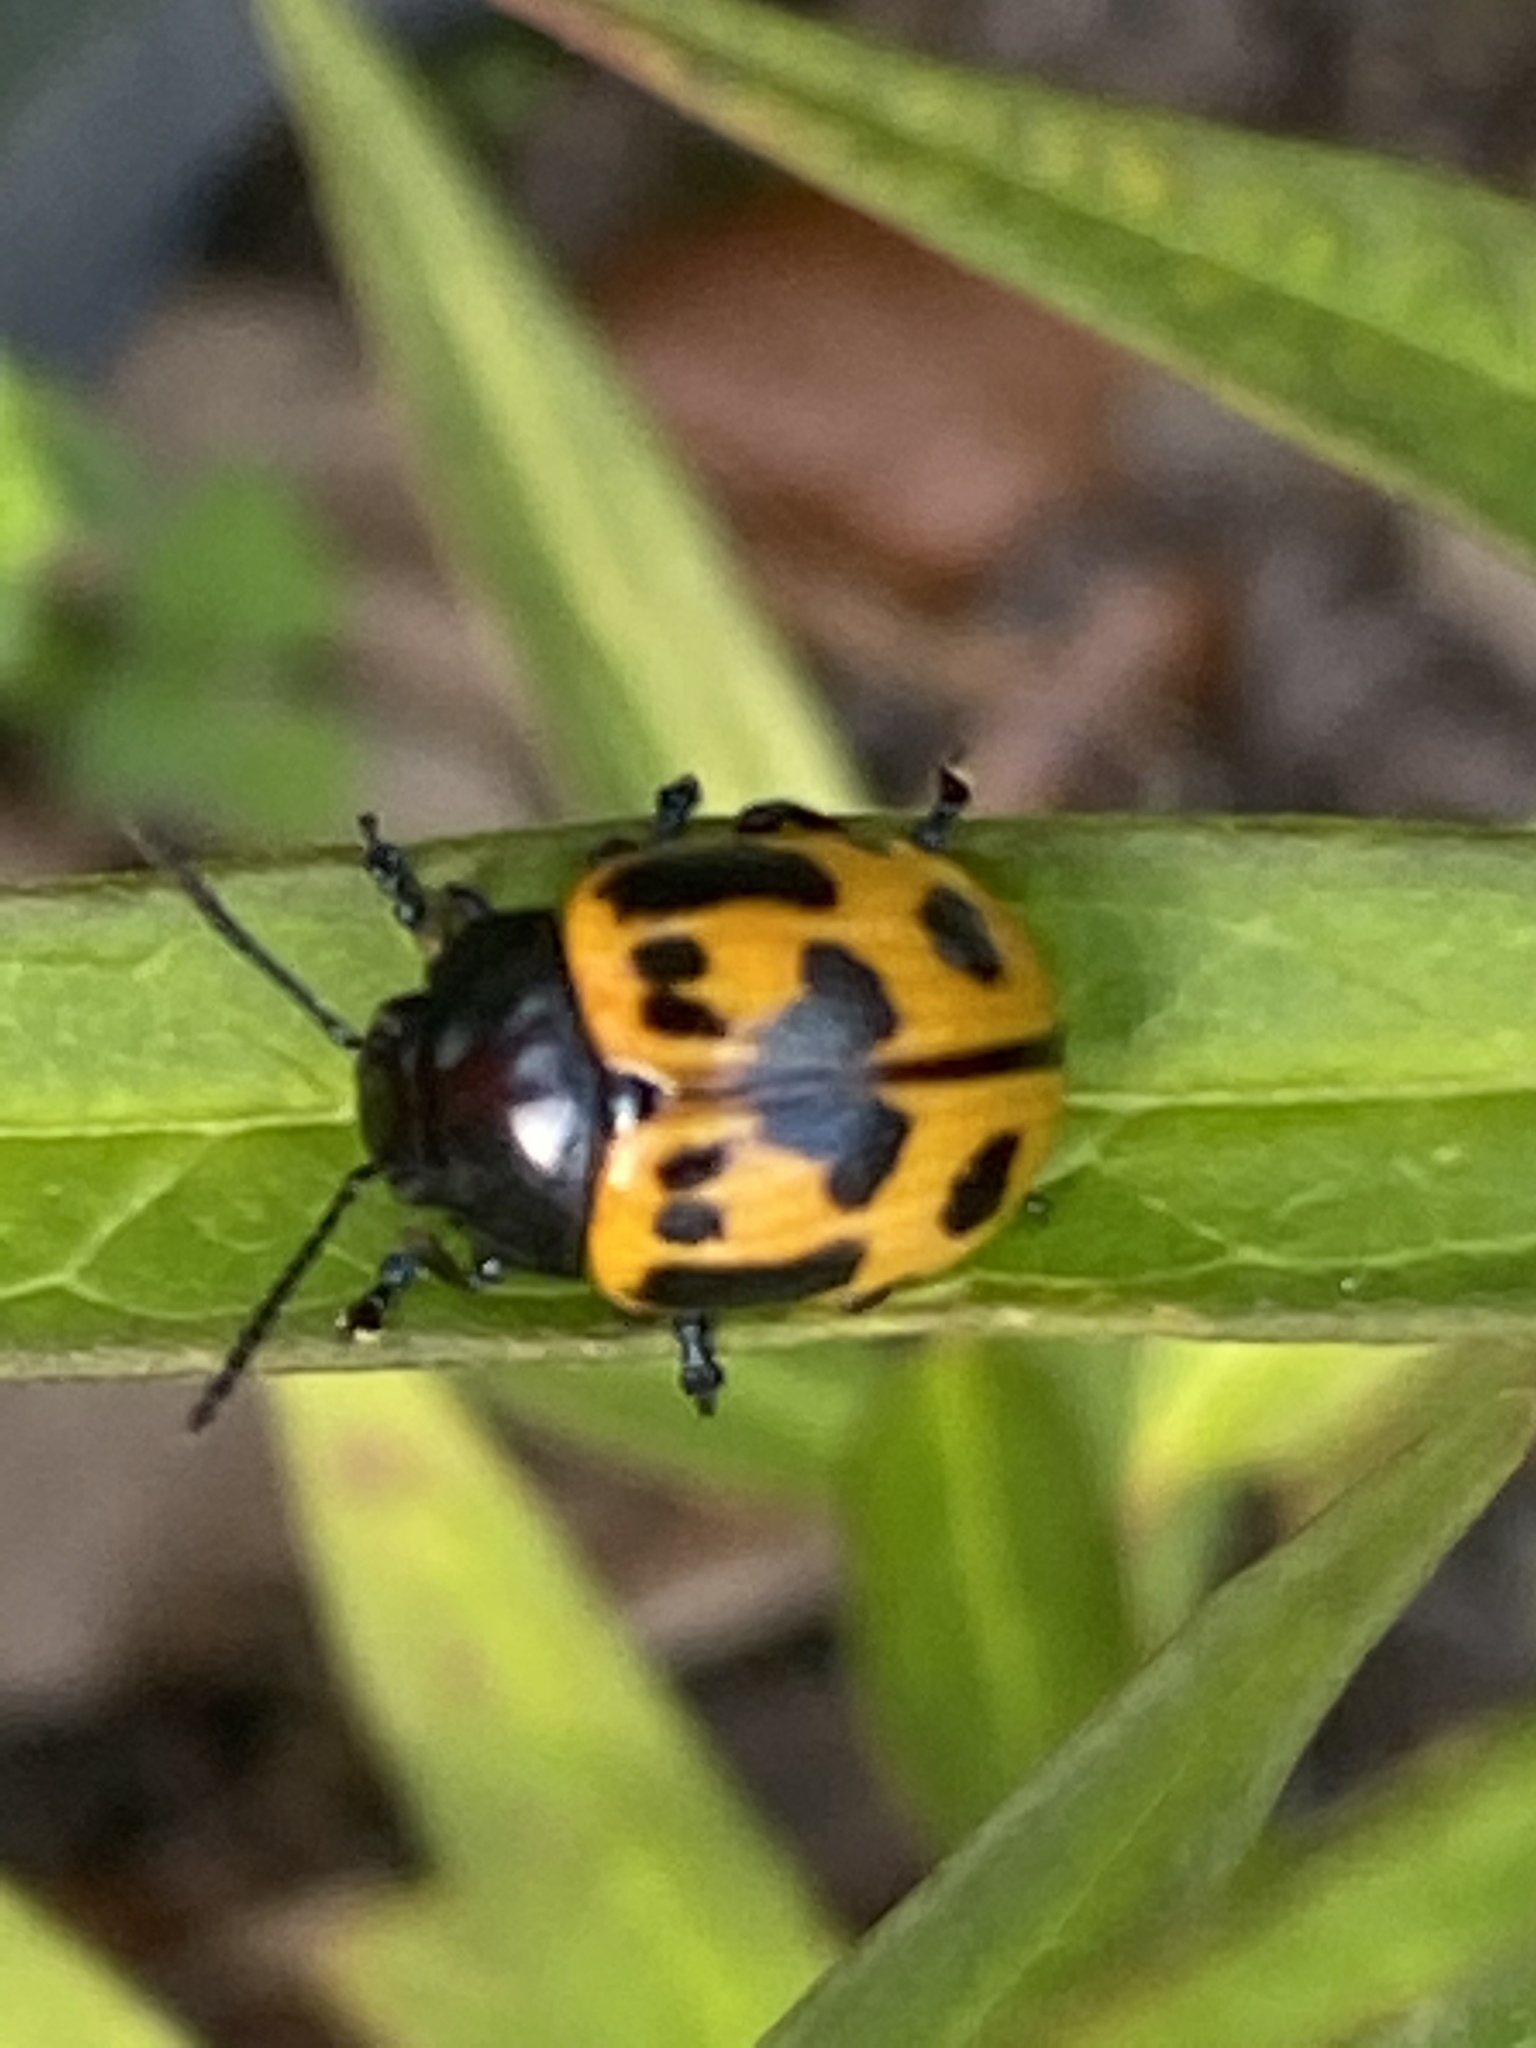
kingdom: Animalia
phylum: Arthropoda
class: Insecta
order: Coleoptera
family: Chrysomelidae
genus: Labidomera
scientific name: Labidomera clivicollis
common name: Swamp milkweed leaf beetle
